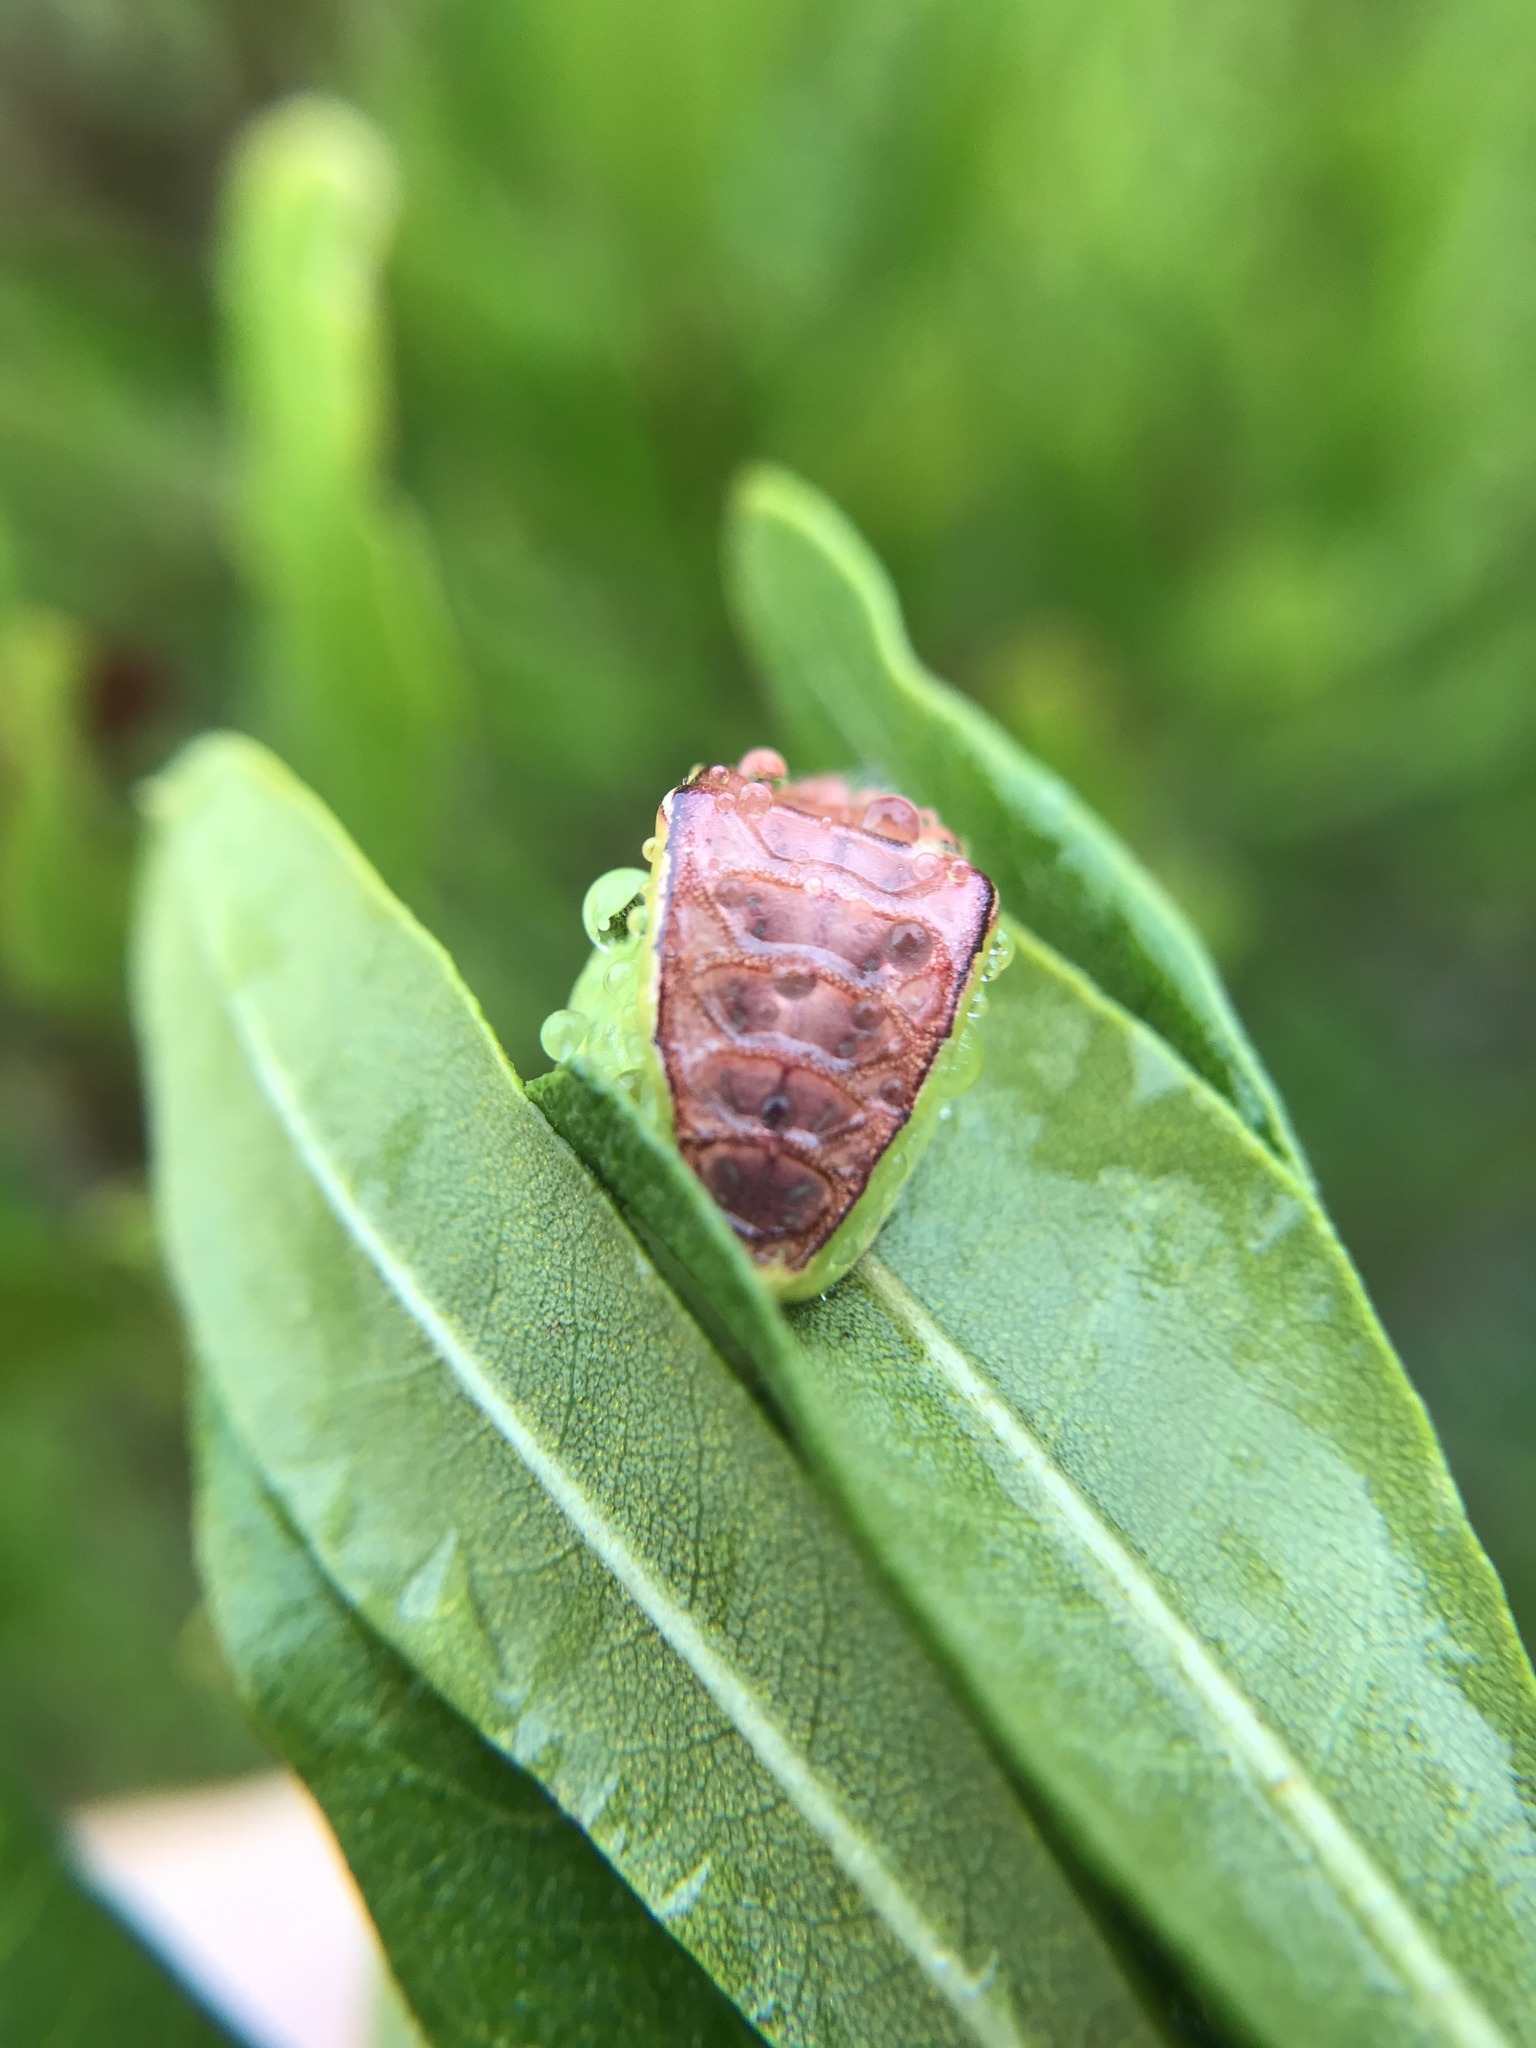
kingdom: Animalia
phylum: Arthropoda
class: Insecta
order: Lepidoptera
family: Limacodidae
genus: Prolimacodes
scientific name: Prolimacodes badia
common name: Skiff moth
